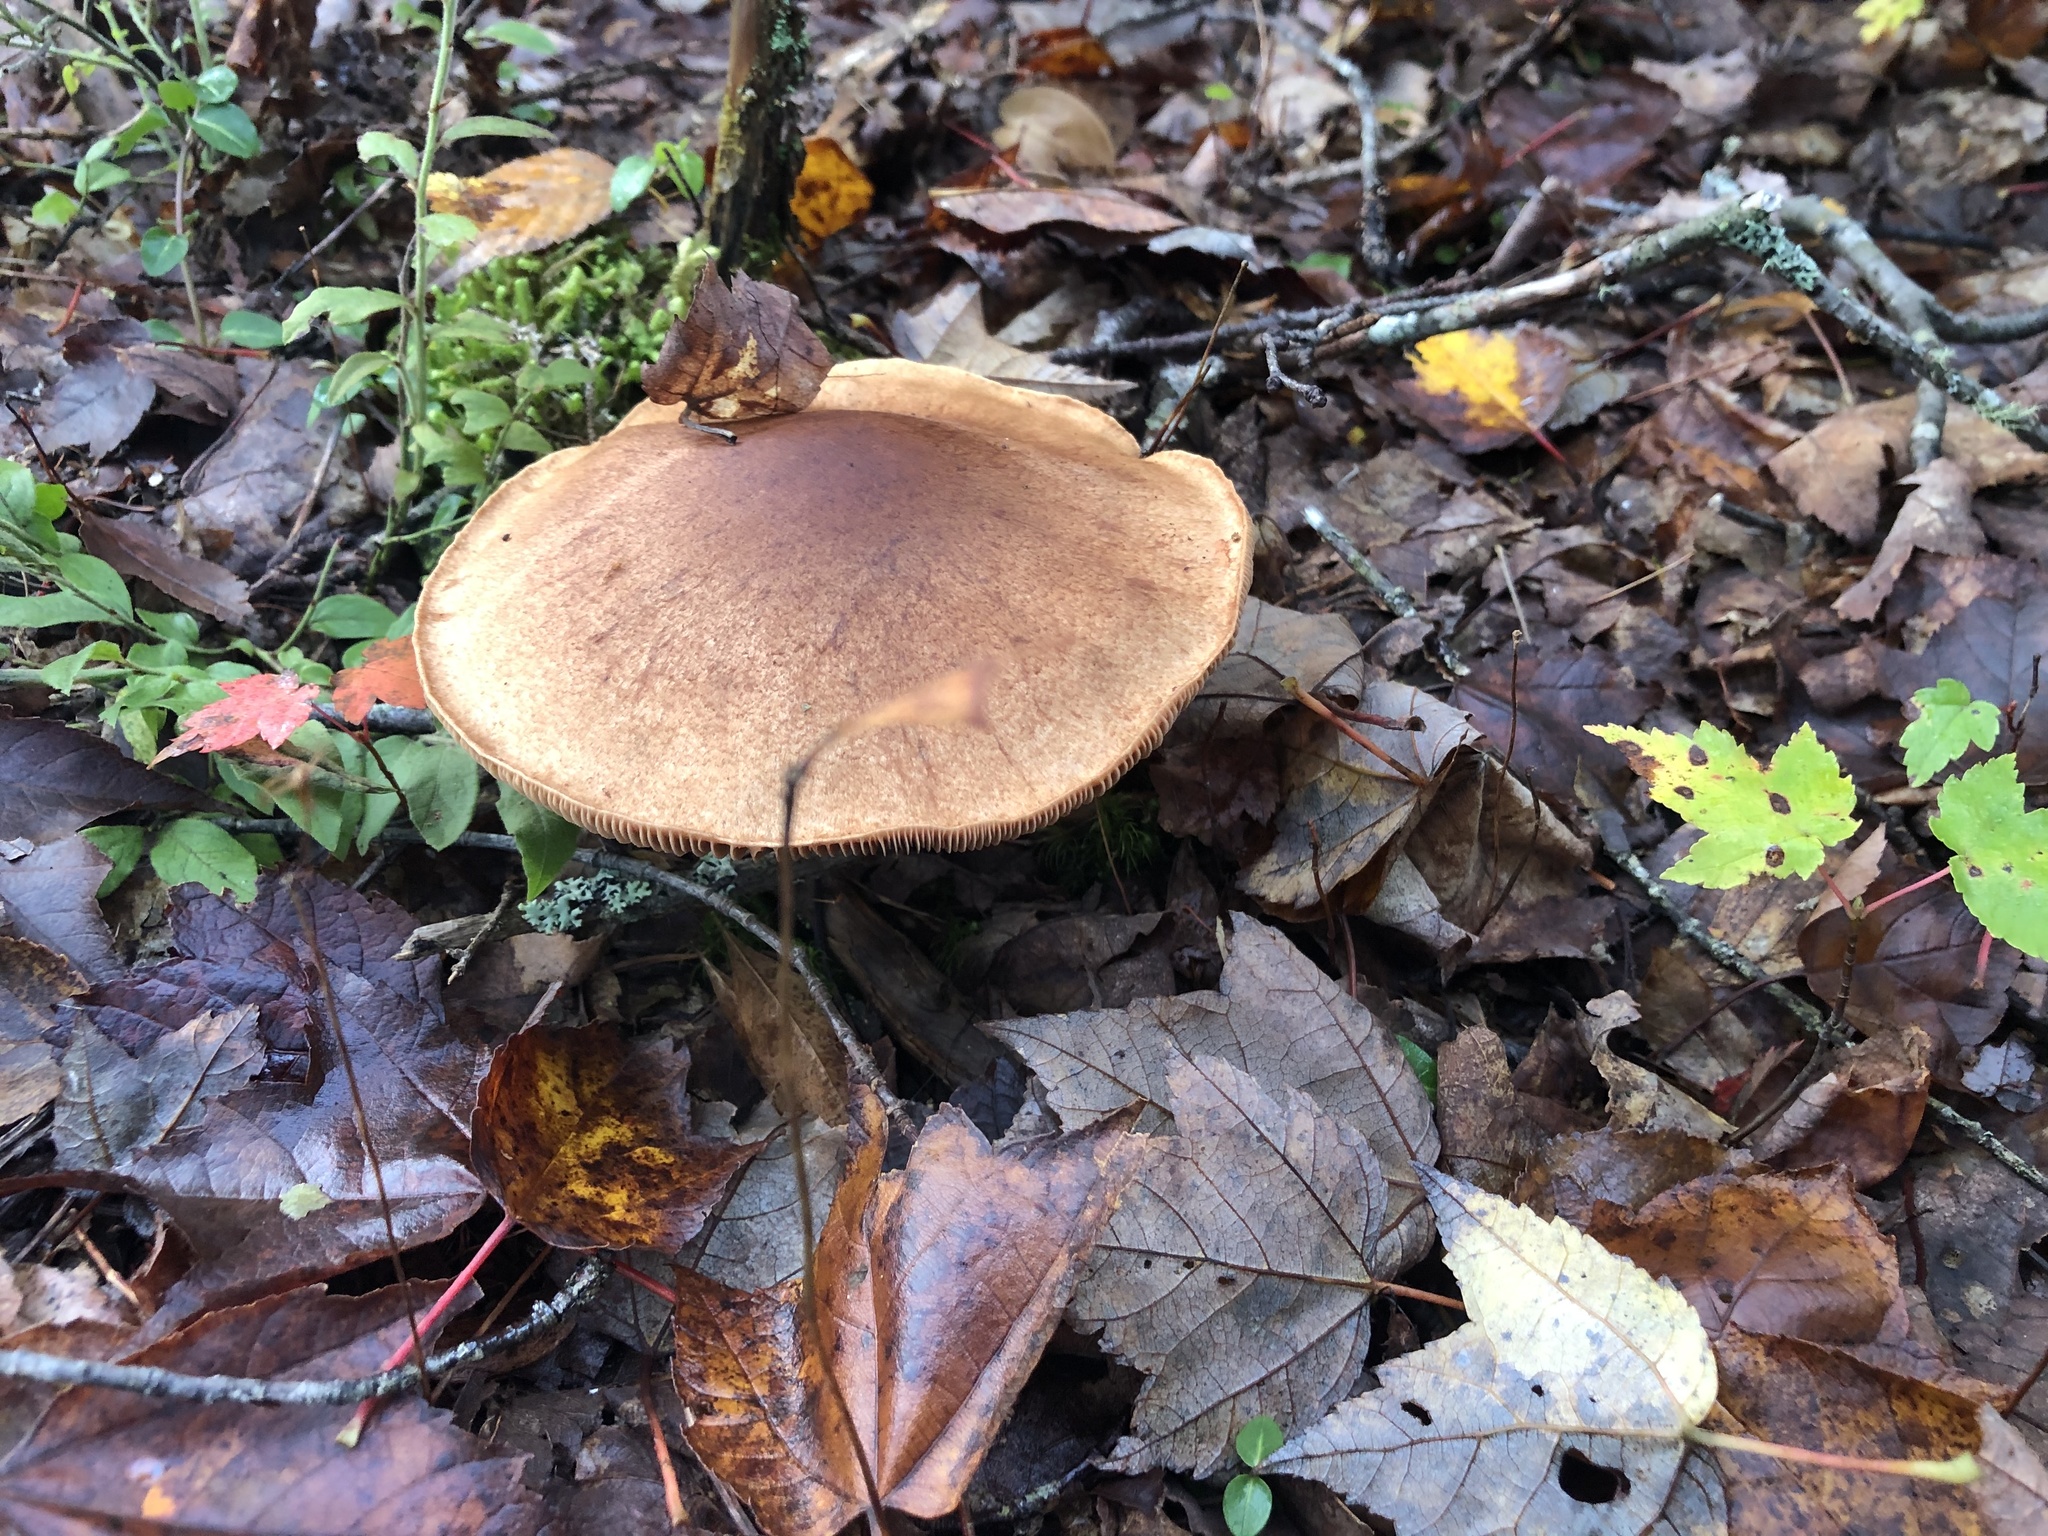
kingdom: Fungi
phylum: Basidiomycota
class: Agaricomycetes
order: Agaricales
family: Cortinariaceae
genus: Cortinarius
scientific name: Cortinarius armillatus
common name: Red banded webcap
